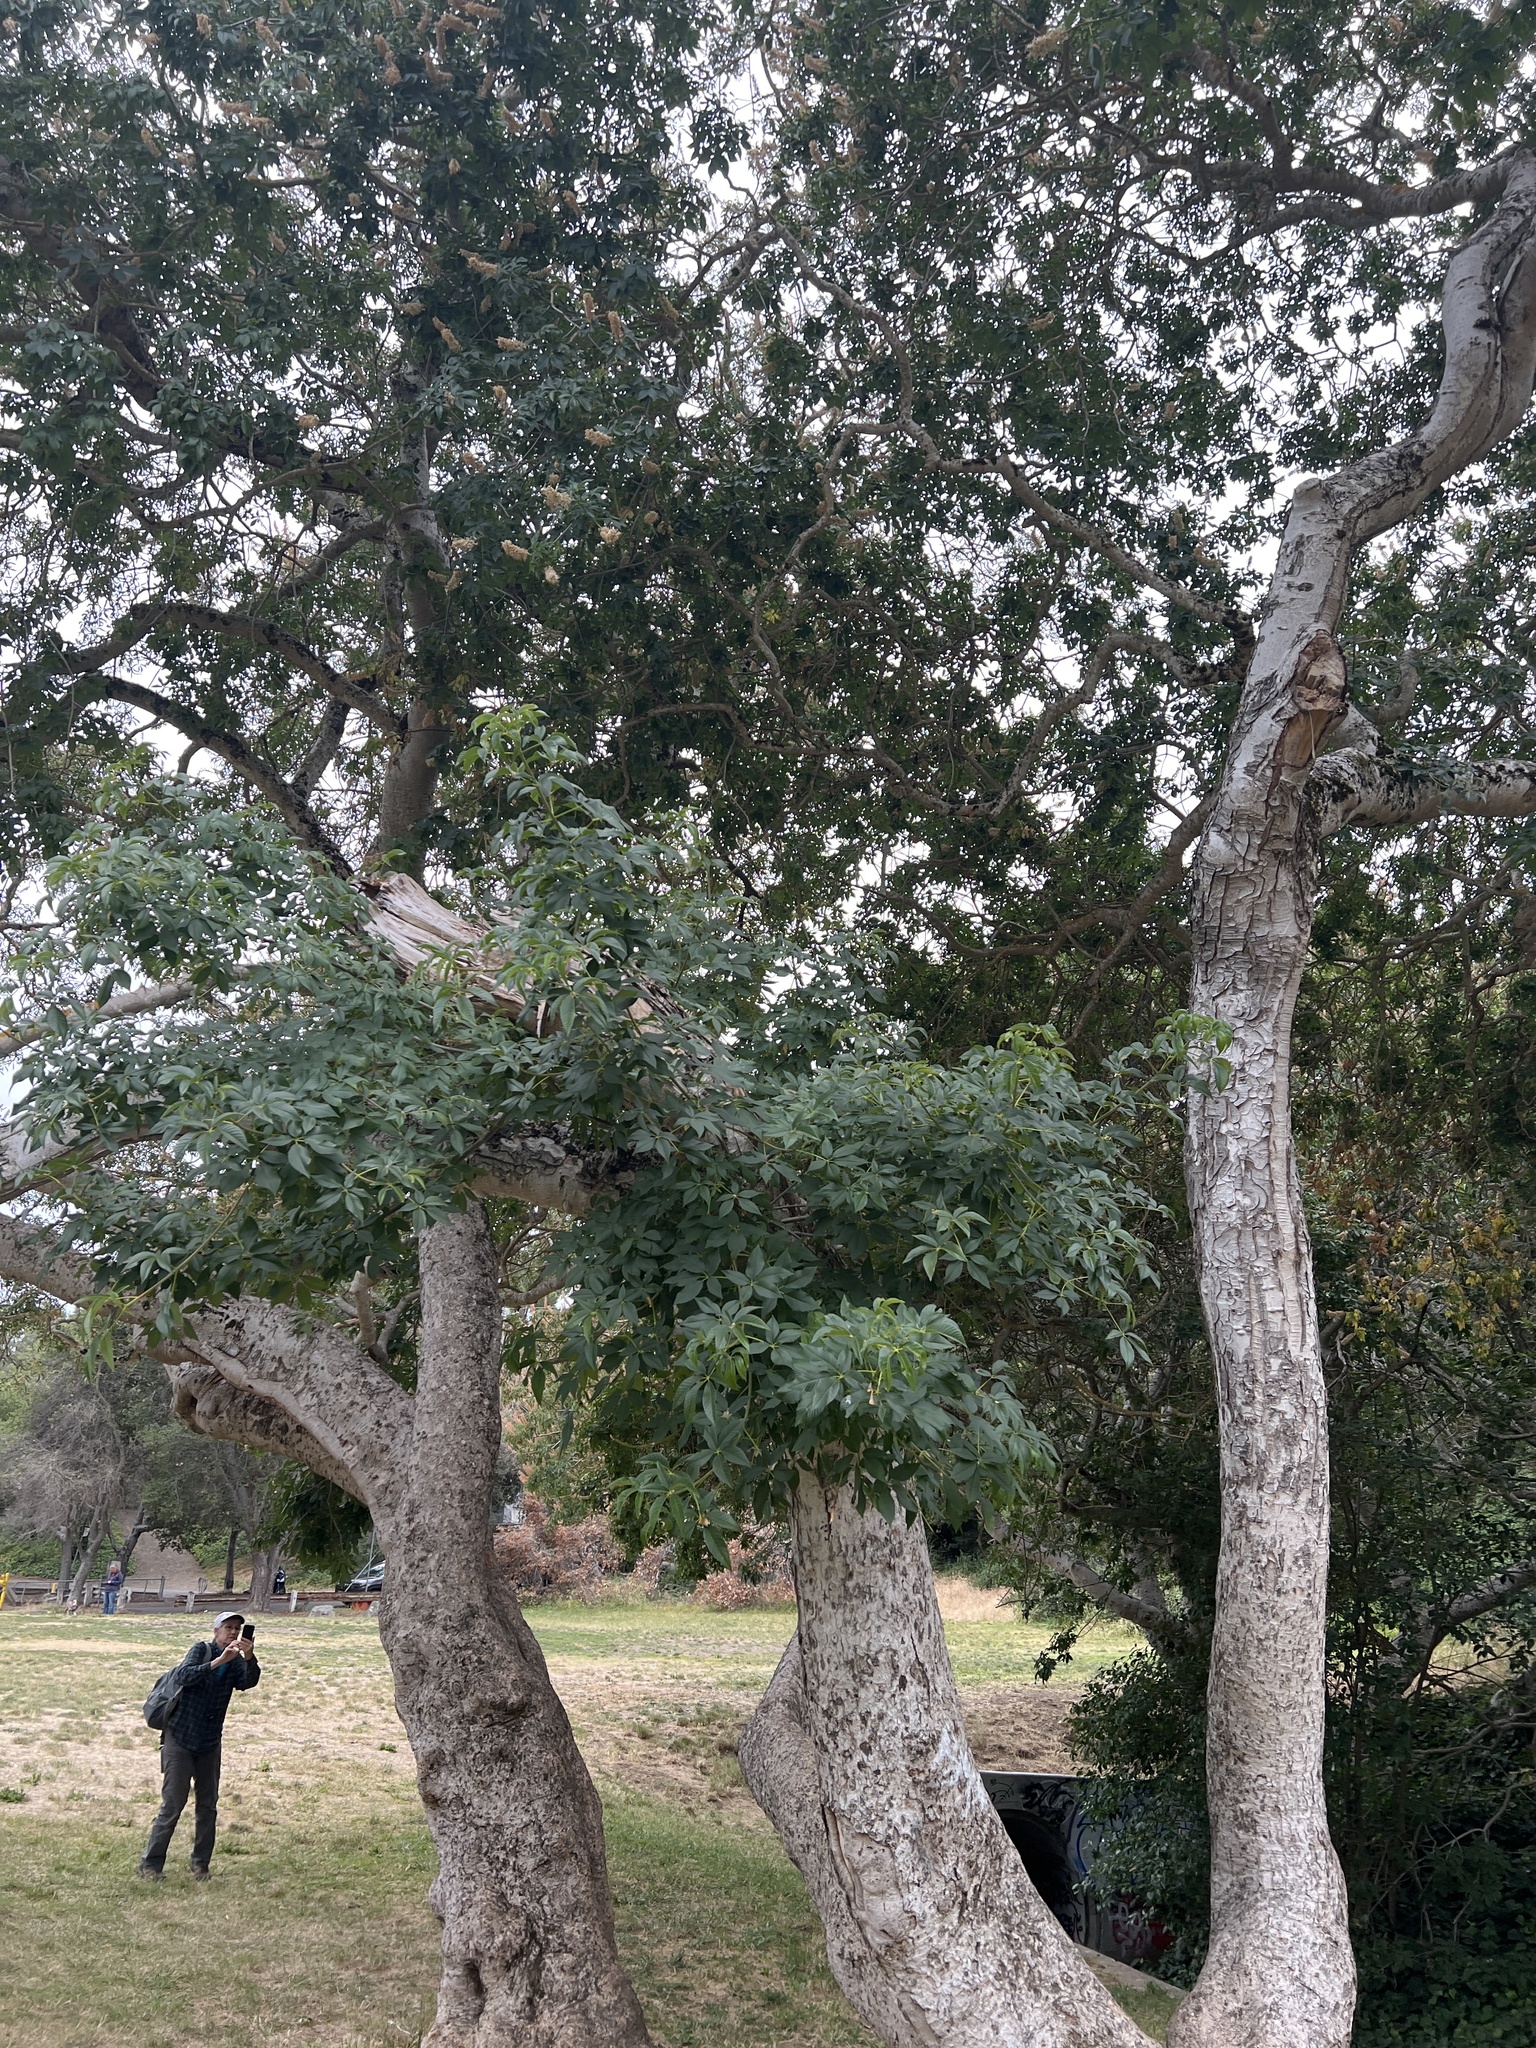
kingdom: Plantae
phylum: Tracheophyta
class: Magnoliopsida
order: Sapindales
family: Sapindaceae
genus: Aesculus
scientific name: Aesculus californica
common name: California buckeye
